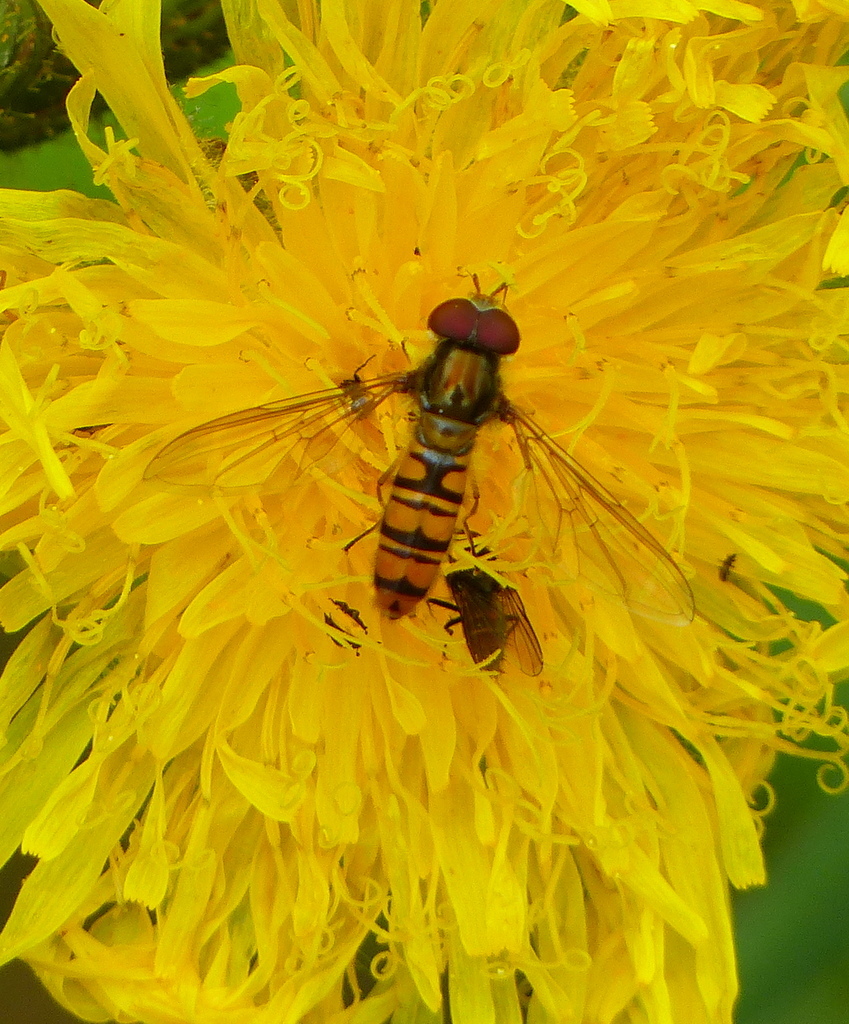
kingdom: Animalia
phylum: Arthropoda
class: Insecta
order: Diptera
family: Syrphidae
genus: Episyrphus
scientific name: Episyrphus balteatus
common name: Marmalade hoverfly
